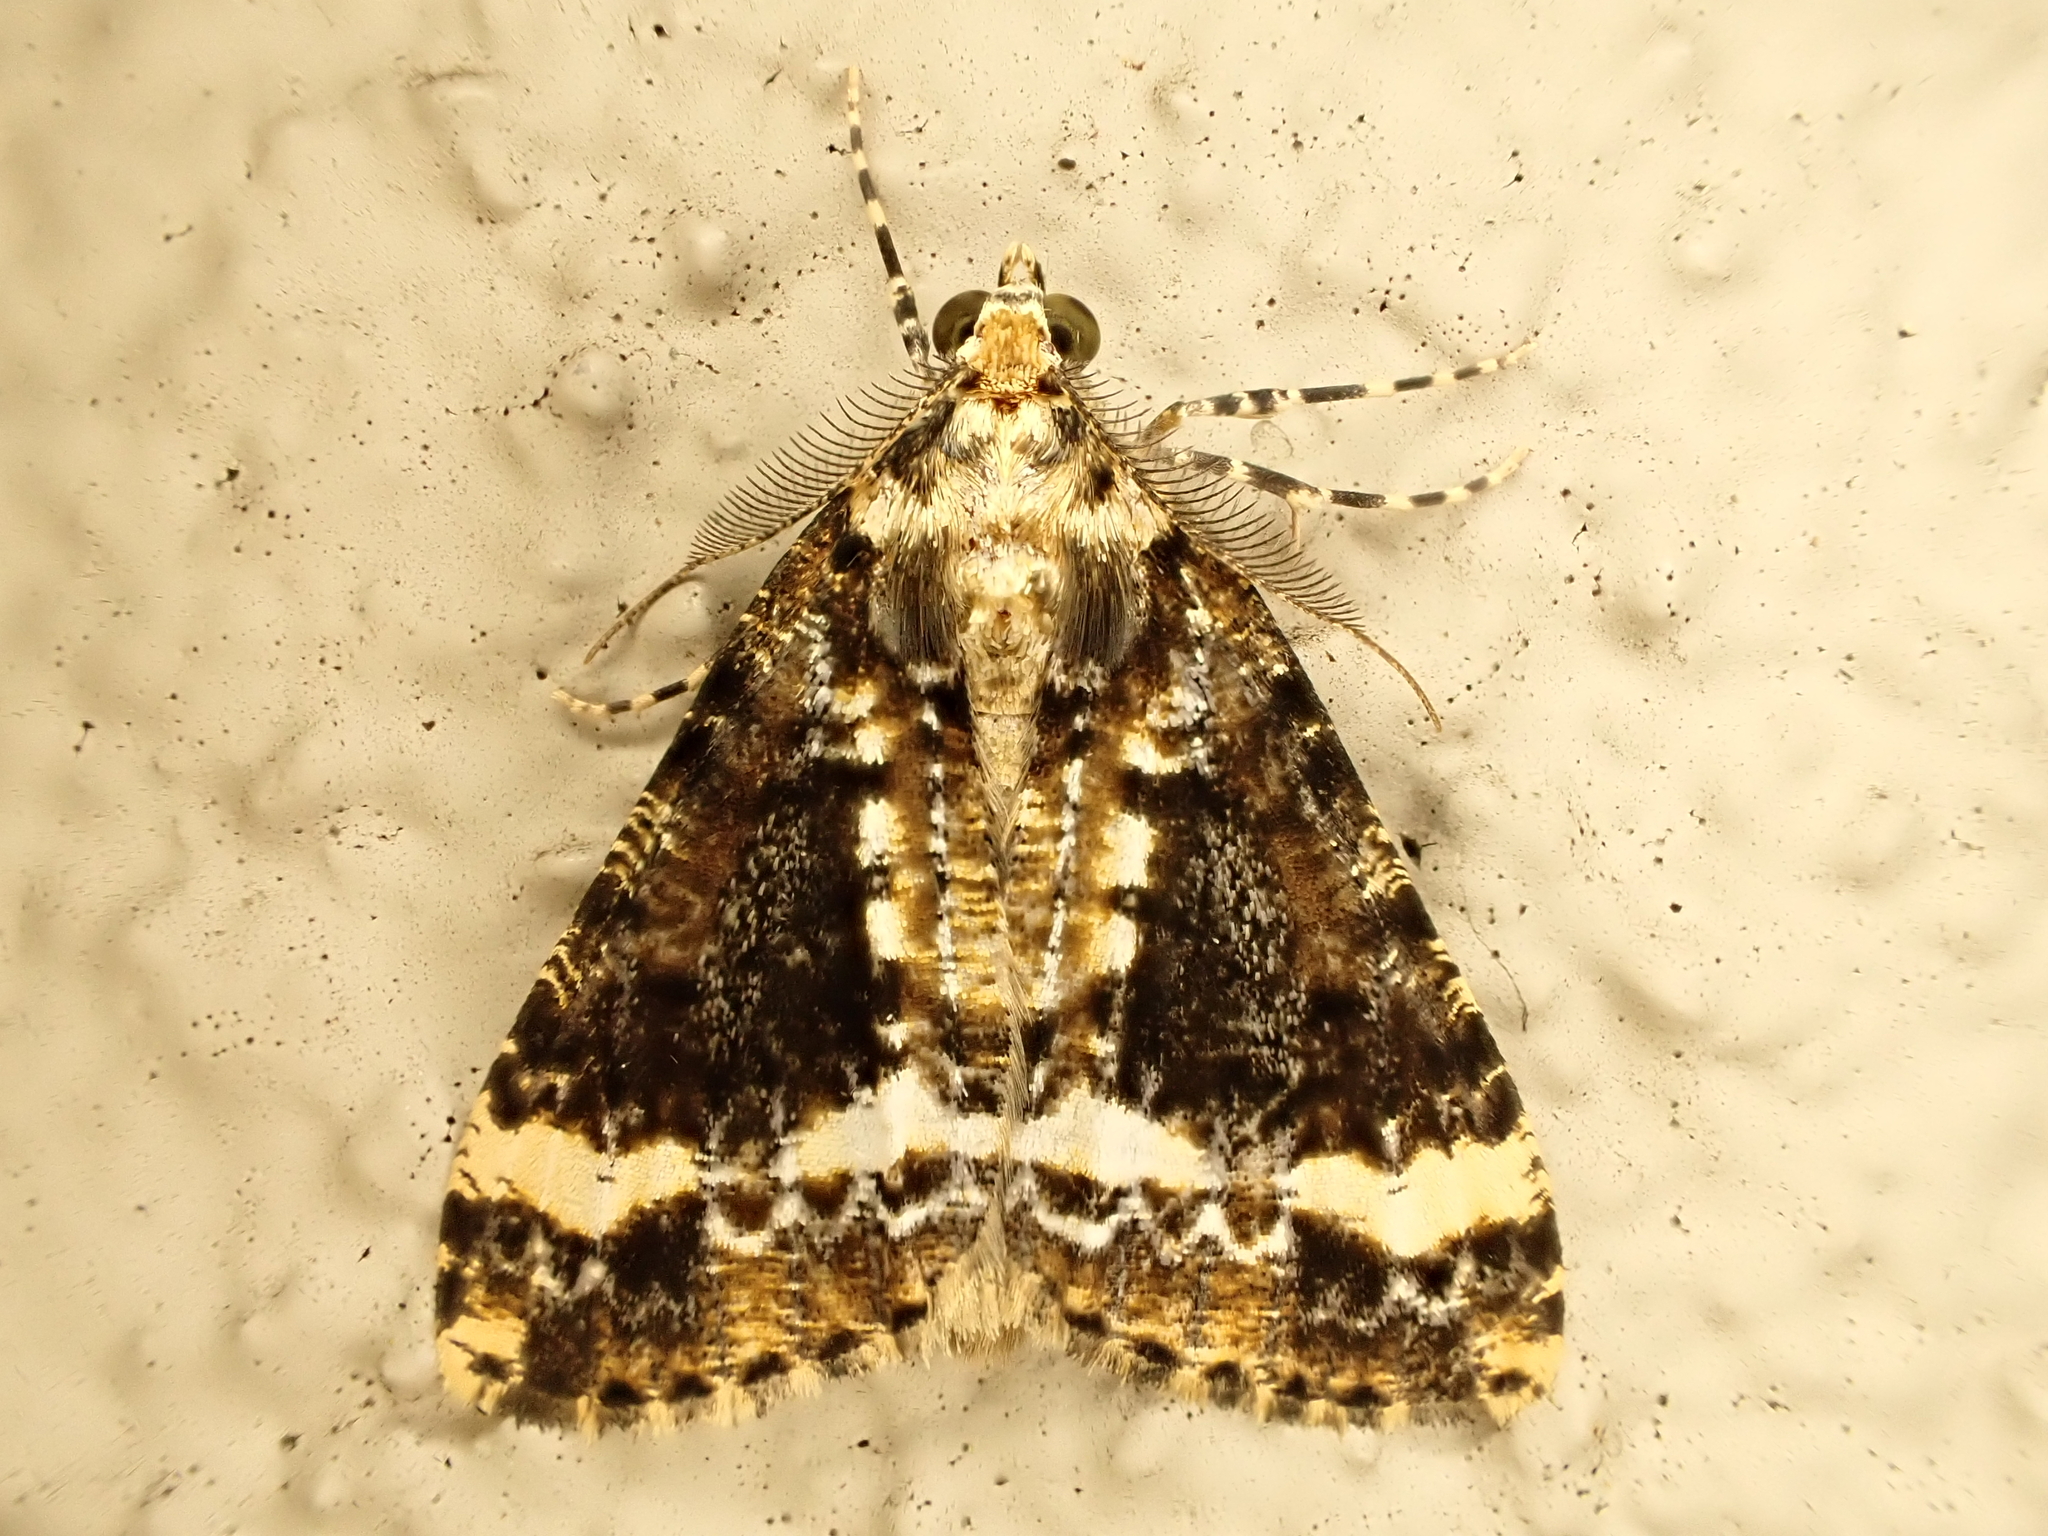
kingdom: Animalia
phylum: Arthropoda
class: Insecta
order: Lepidoptera
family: Geometridae
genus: Pseudocoremia
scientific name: Pseudocoremia leucelaea
